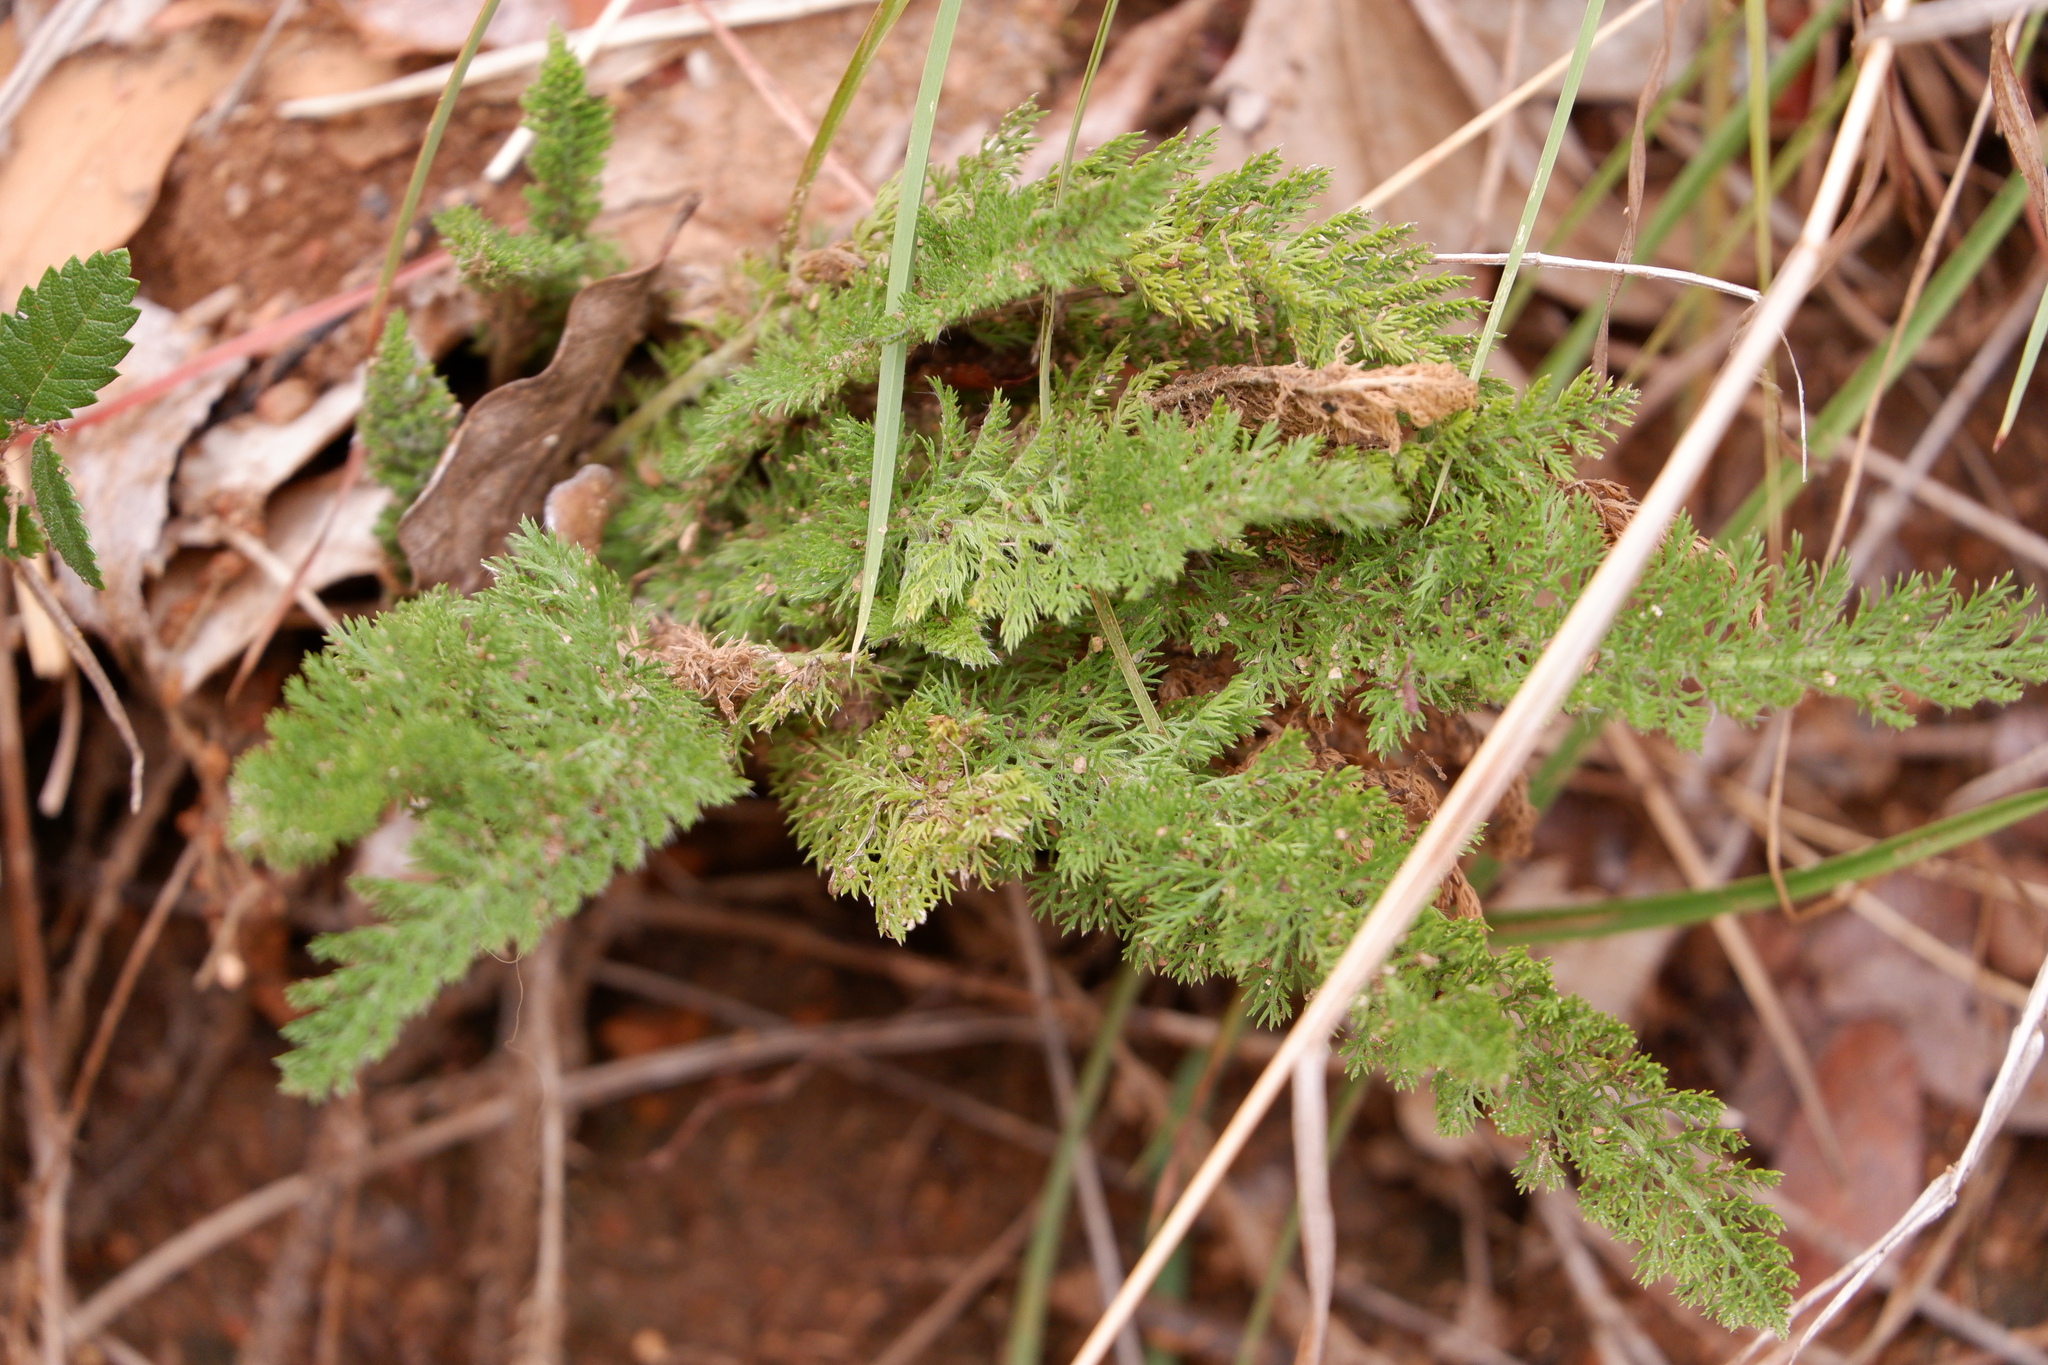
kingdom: Plantae
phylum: Tracheophyta
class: Magnoliopsida
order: Asterales
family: Asteraceae
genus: Achillea
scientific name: Achillea millefolium
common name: Yarrow
